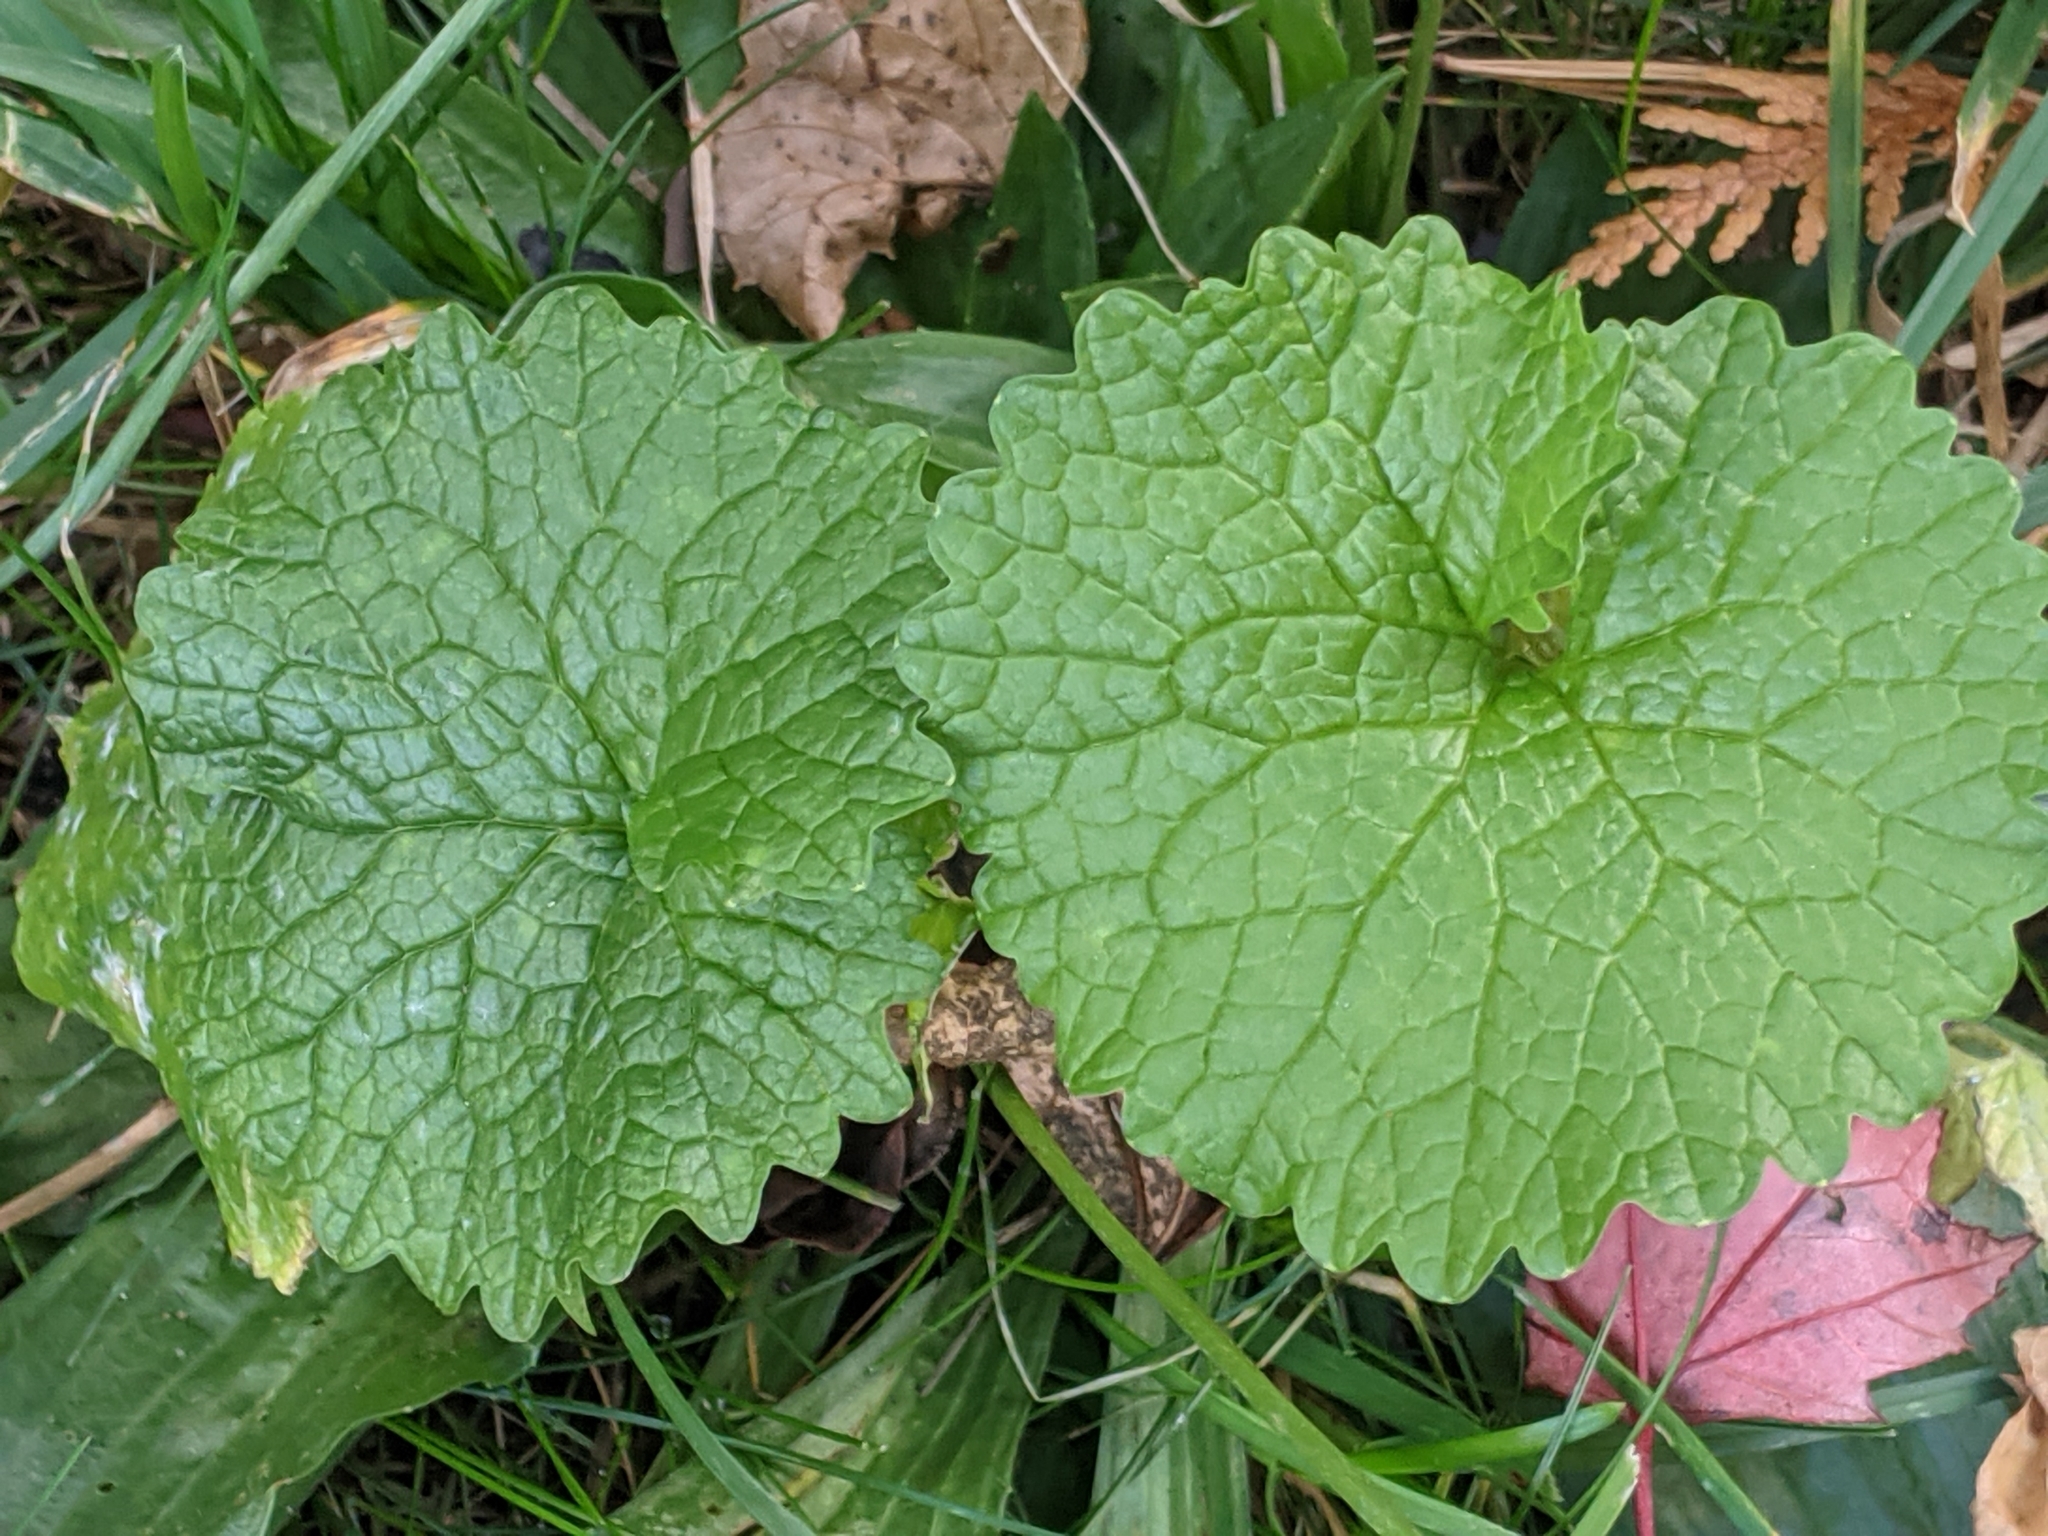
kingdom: Plantae
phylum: Tracheophyta
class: Magnoliopsida
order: Brassicales
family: Brassicaceae
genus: Alliaria
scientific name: Alliaria petiolata
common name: Garlic mustard
